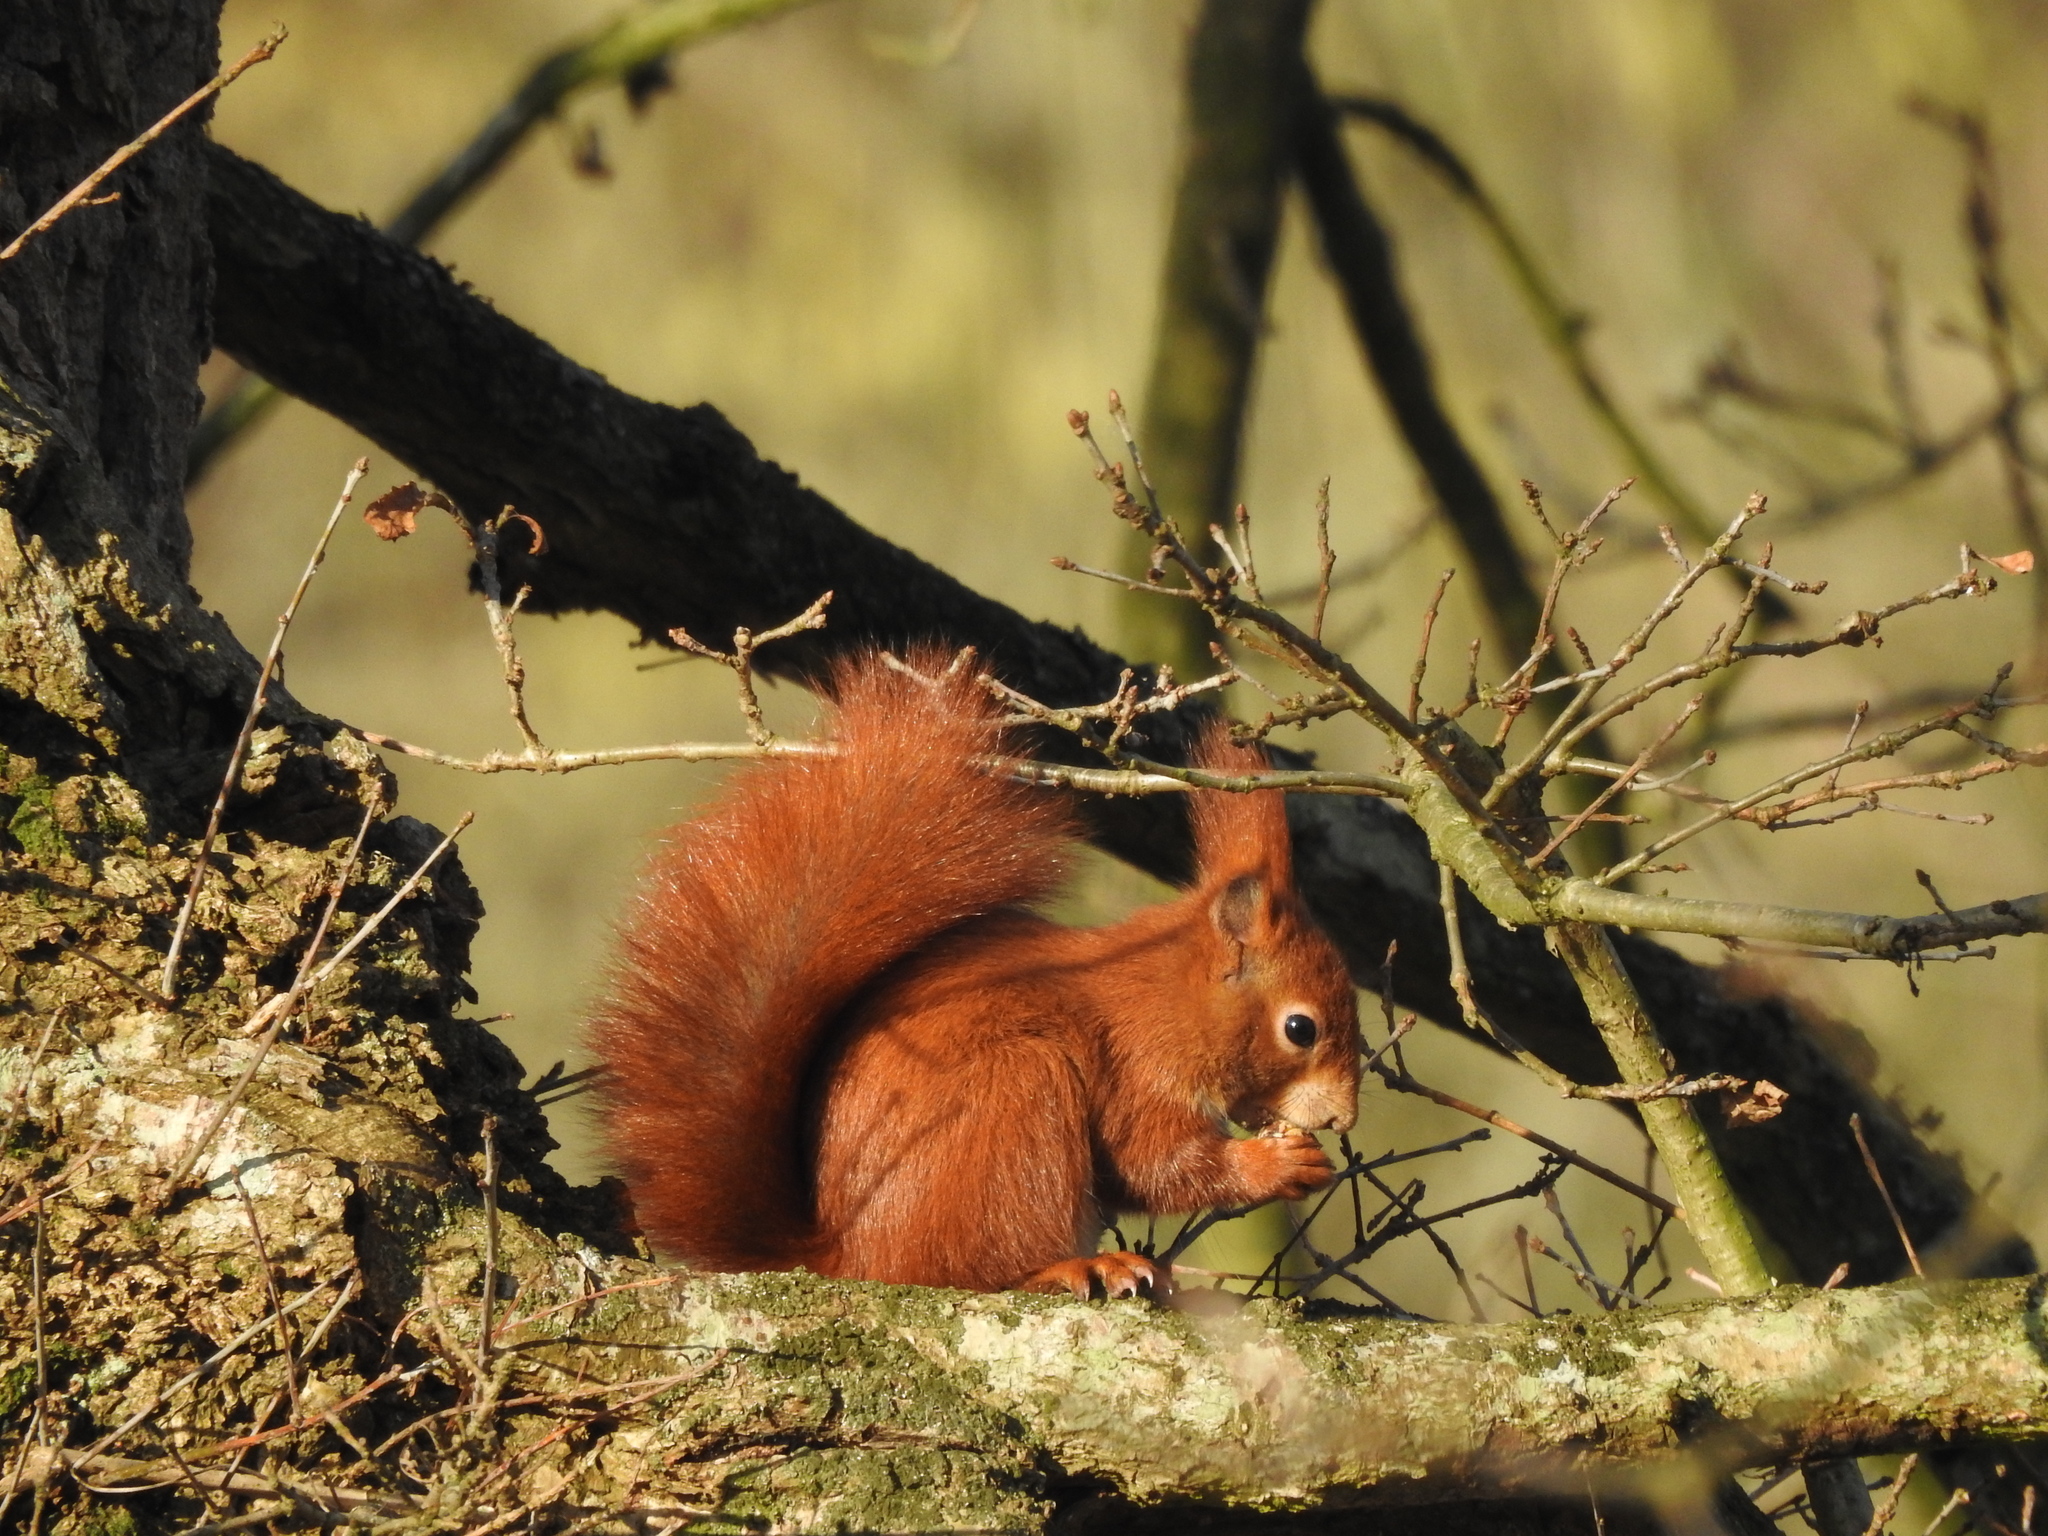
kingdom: Animalia
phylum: Chordata
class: Mammalia
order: Rodentia
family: Sciuridae
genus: Sciurus
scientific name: Sciurus vulgaris
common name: Eurasian red squirrel
